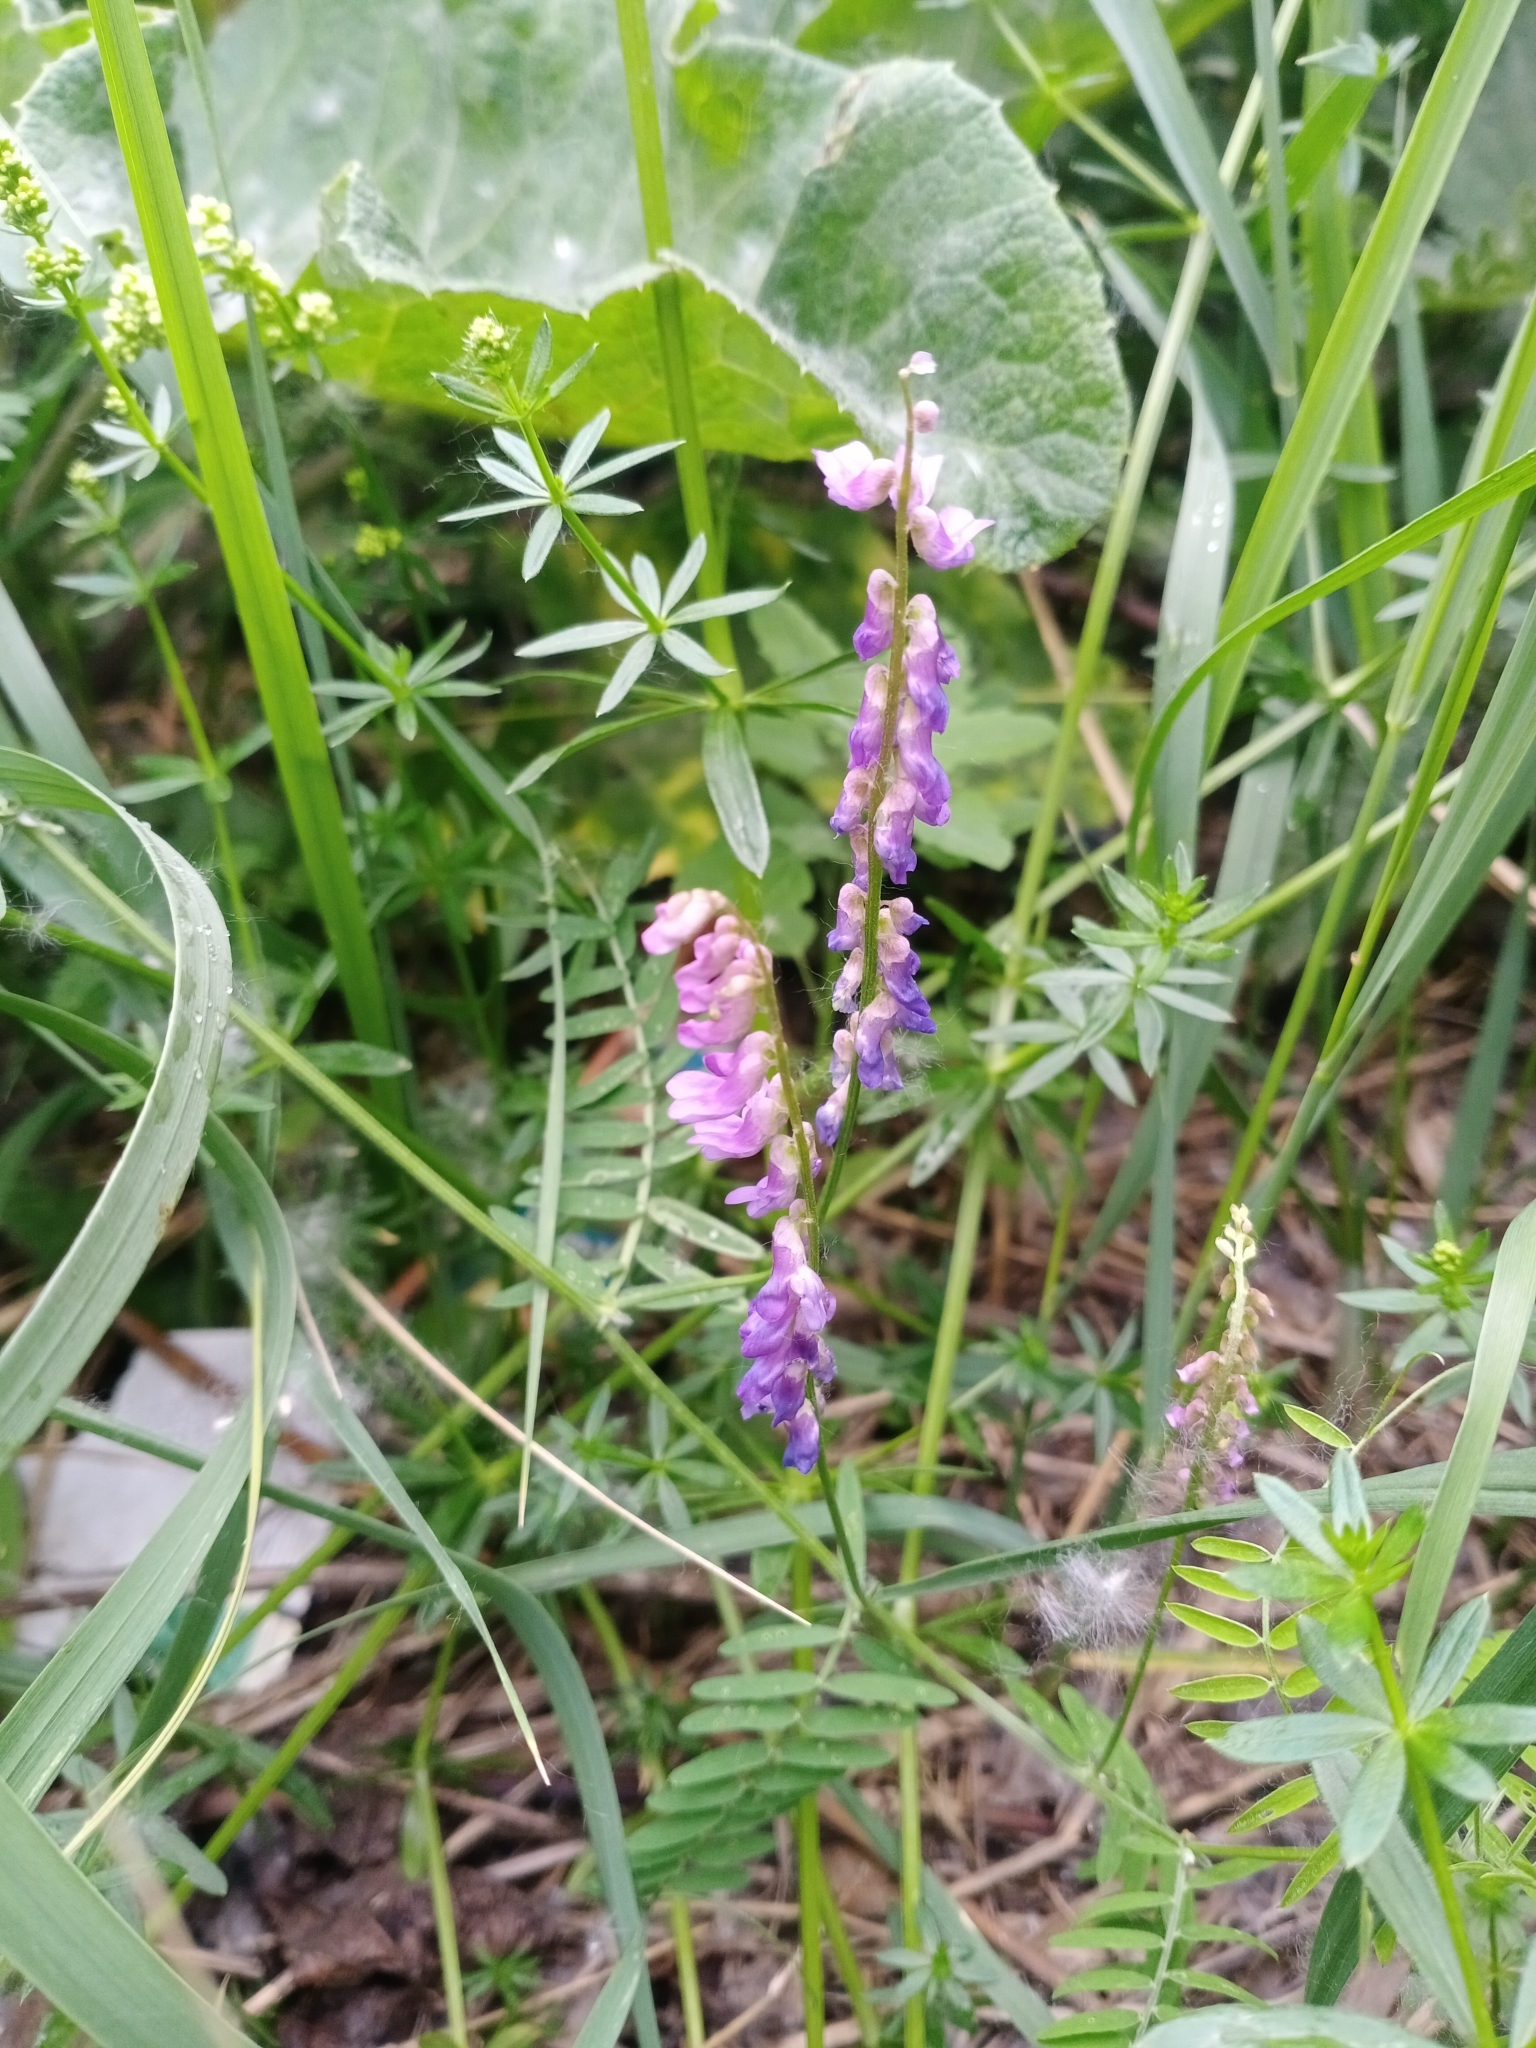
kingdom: Plantae
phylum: Tracheophyta
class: Magnoliopsida
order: Fabales
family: Fabaceae
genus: Vicia
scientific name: Vicia cracca
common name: Bird vetch
